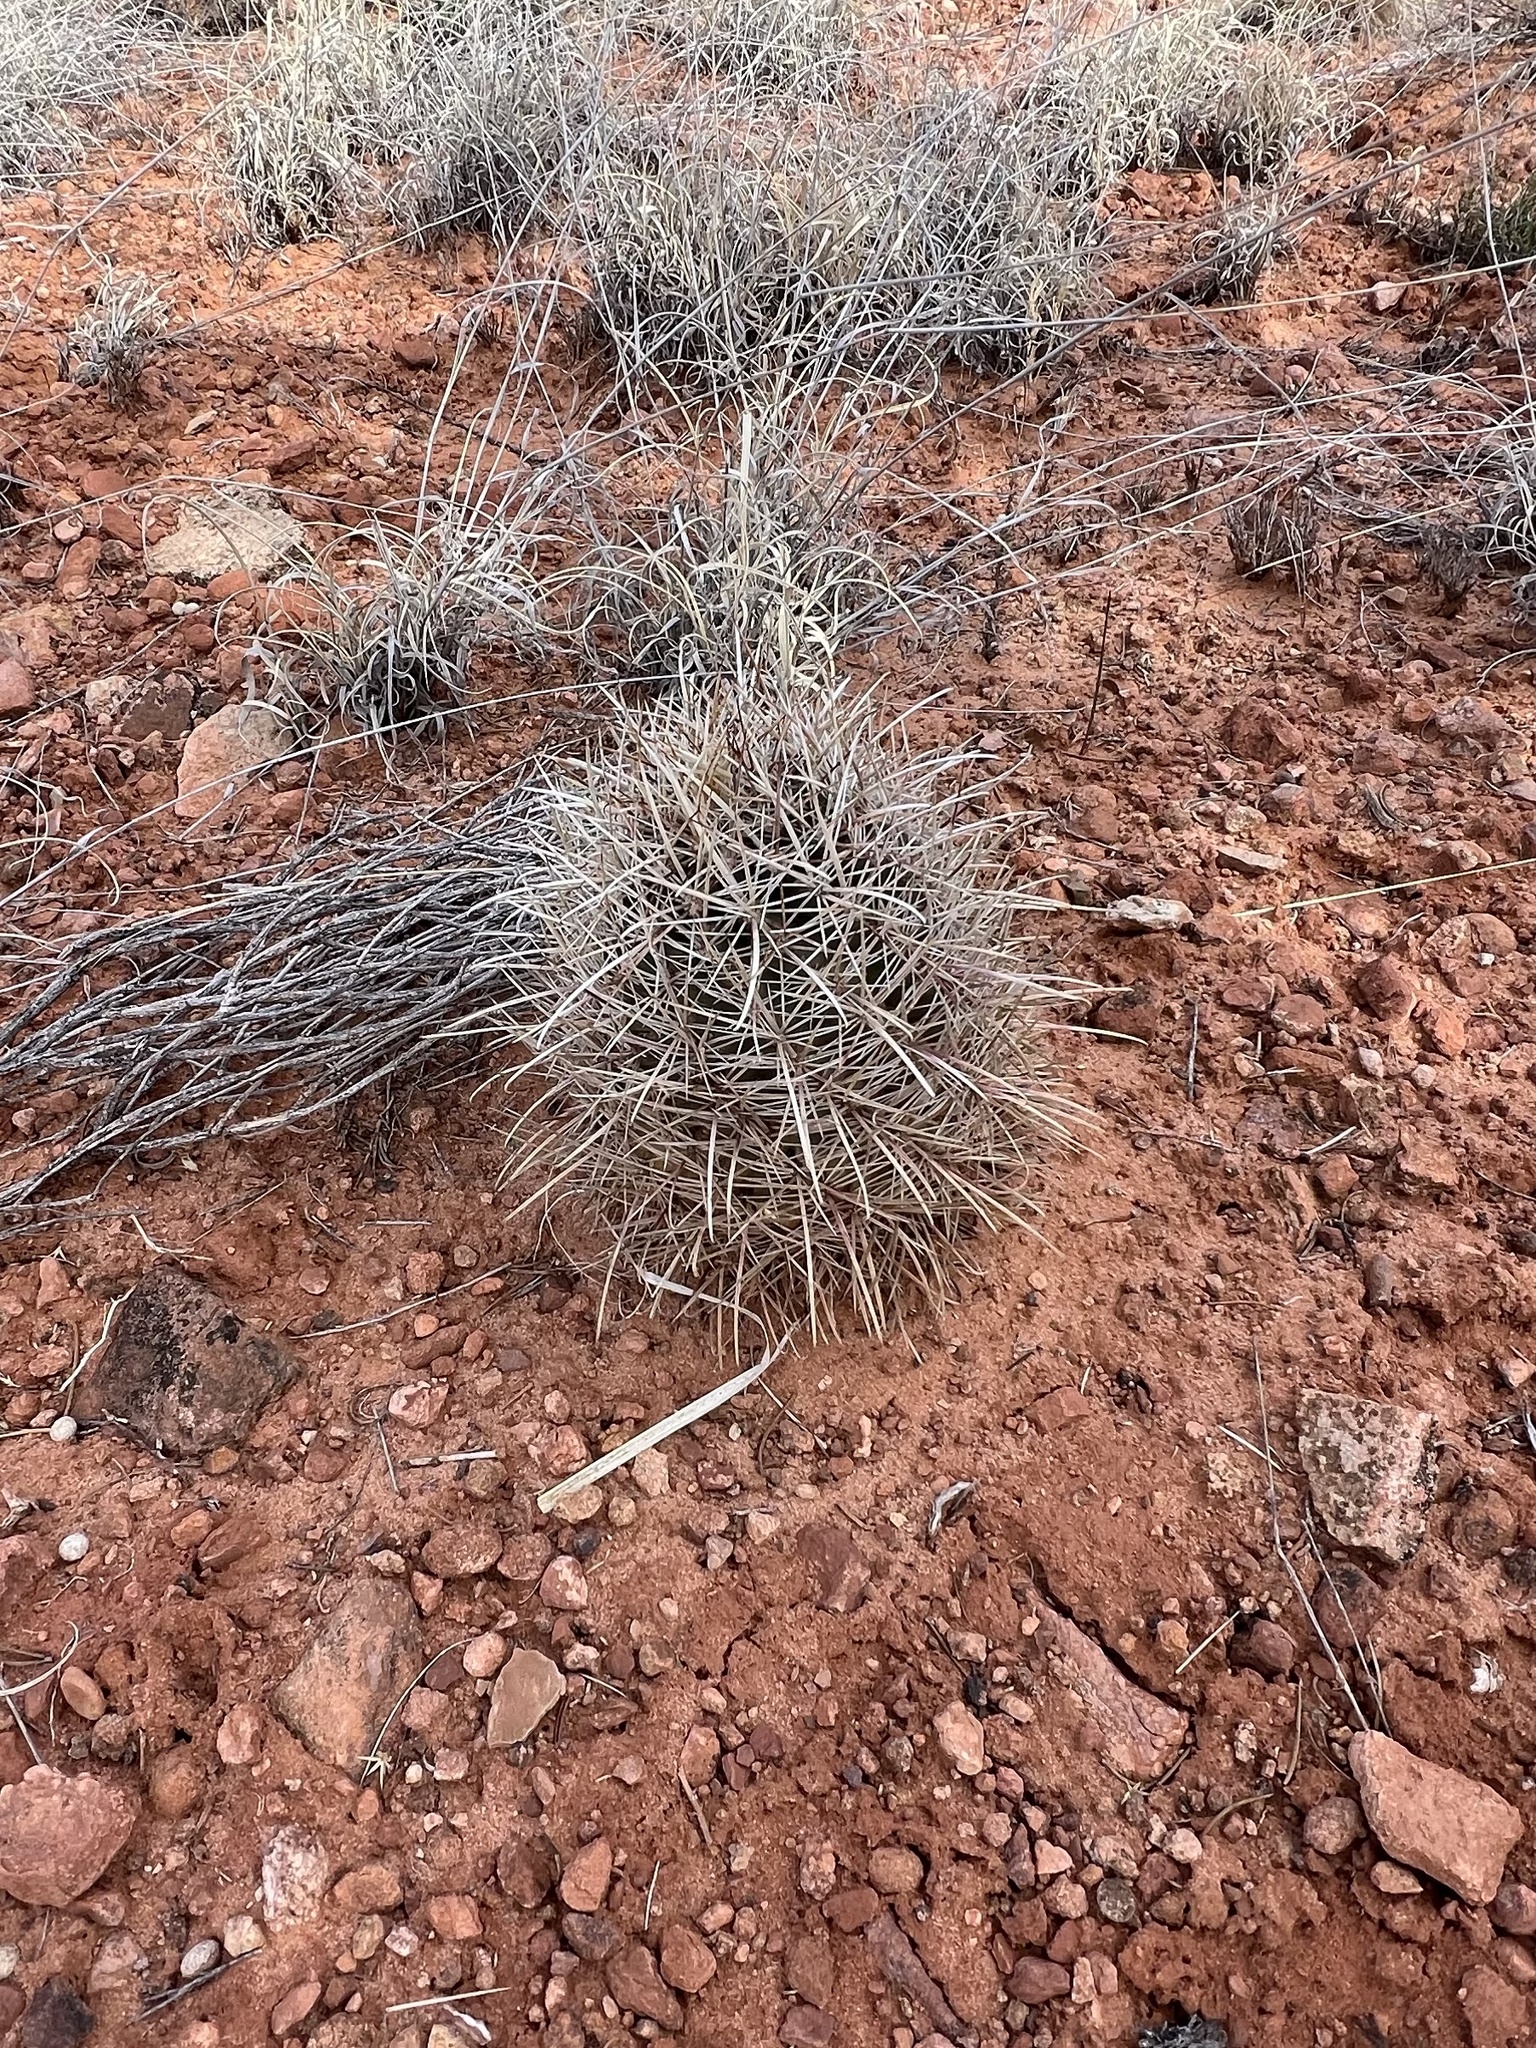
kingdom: Plantae
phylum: Tracheophyta
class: Magnoliopsida
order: Caryophyllales
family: Cactaceae
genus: Sclerocactus
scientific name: Sclerocactus parviflorus
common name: Small-flower fishhook cactus
